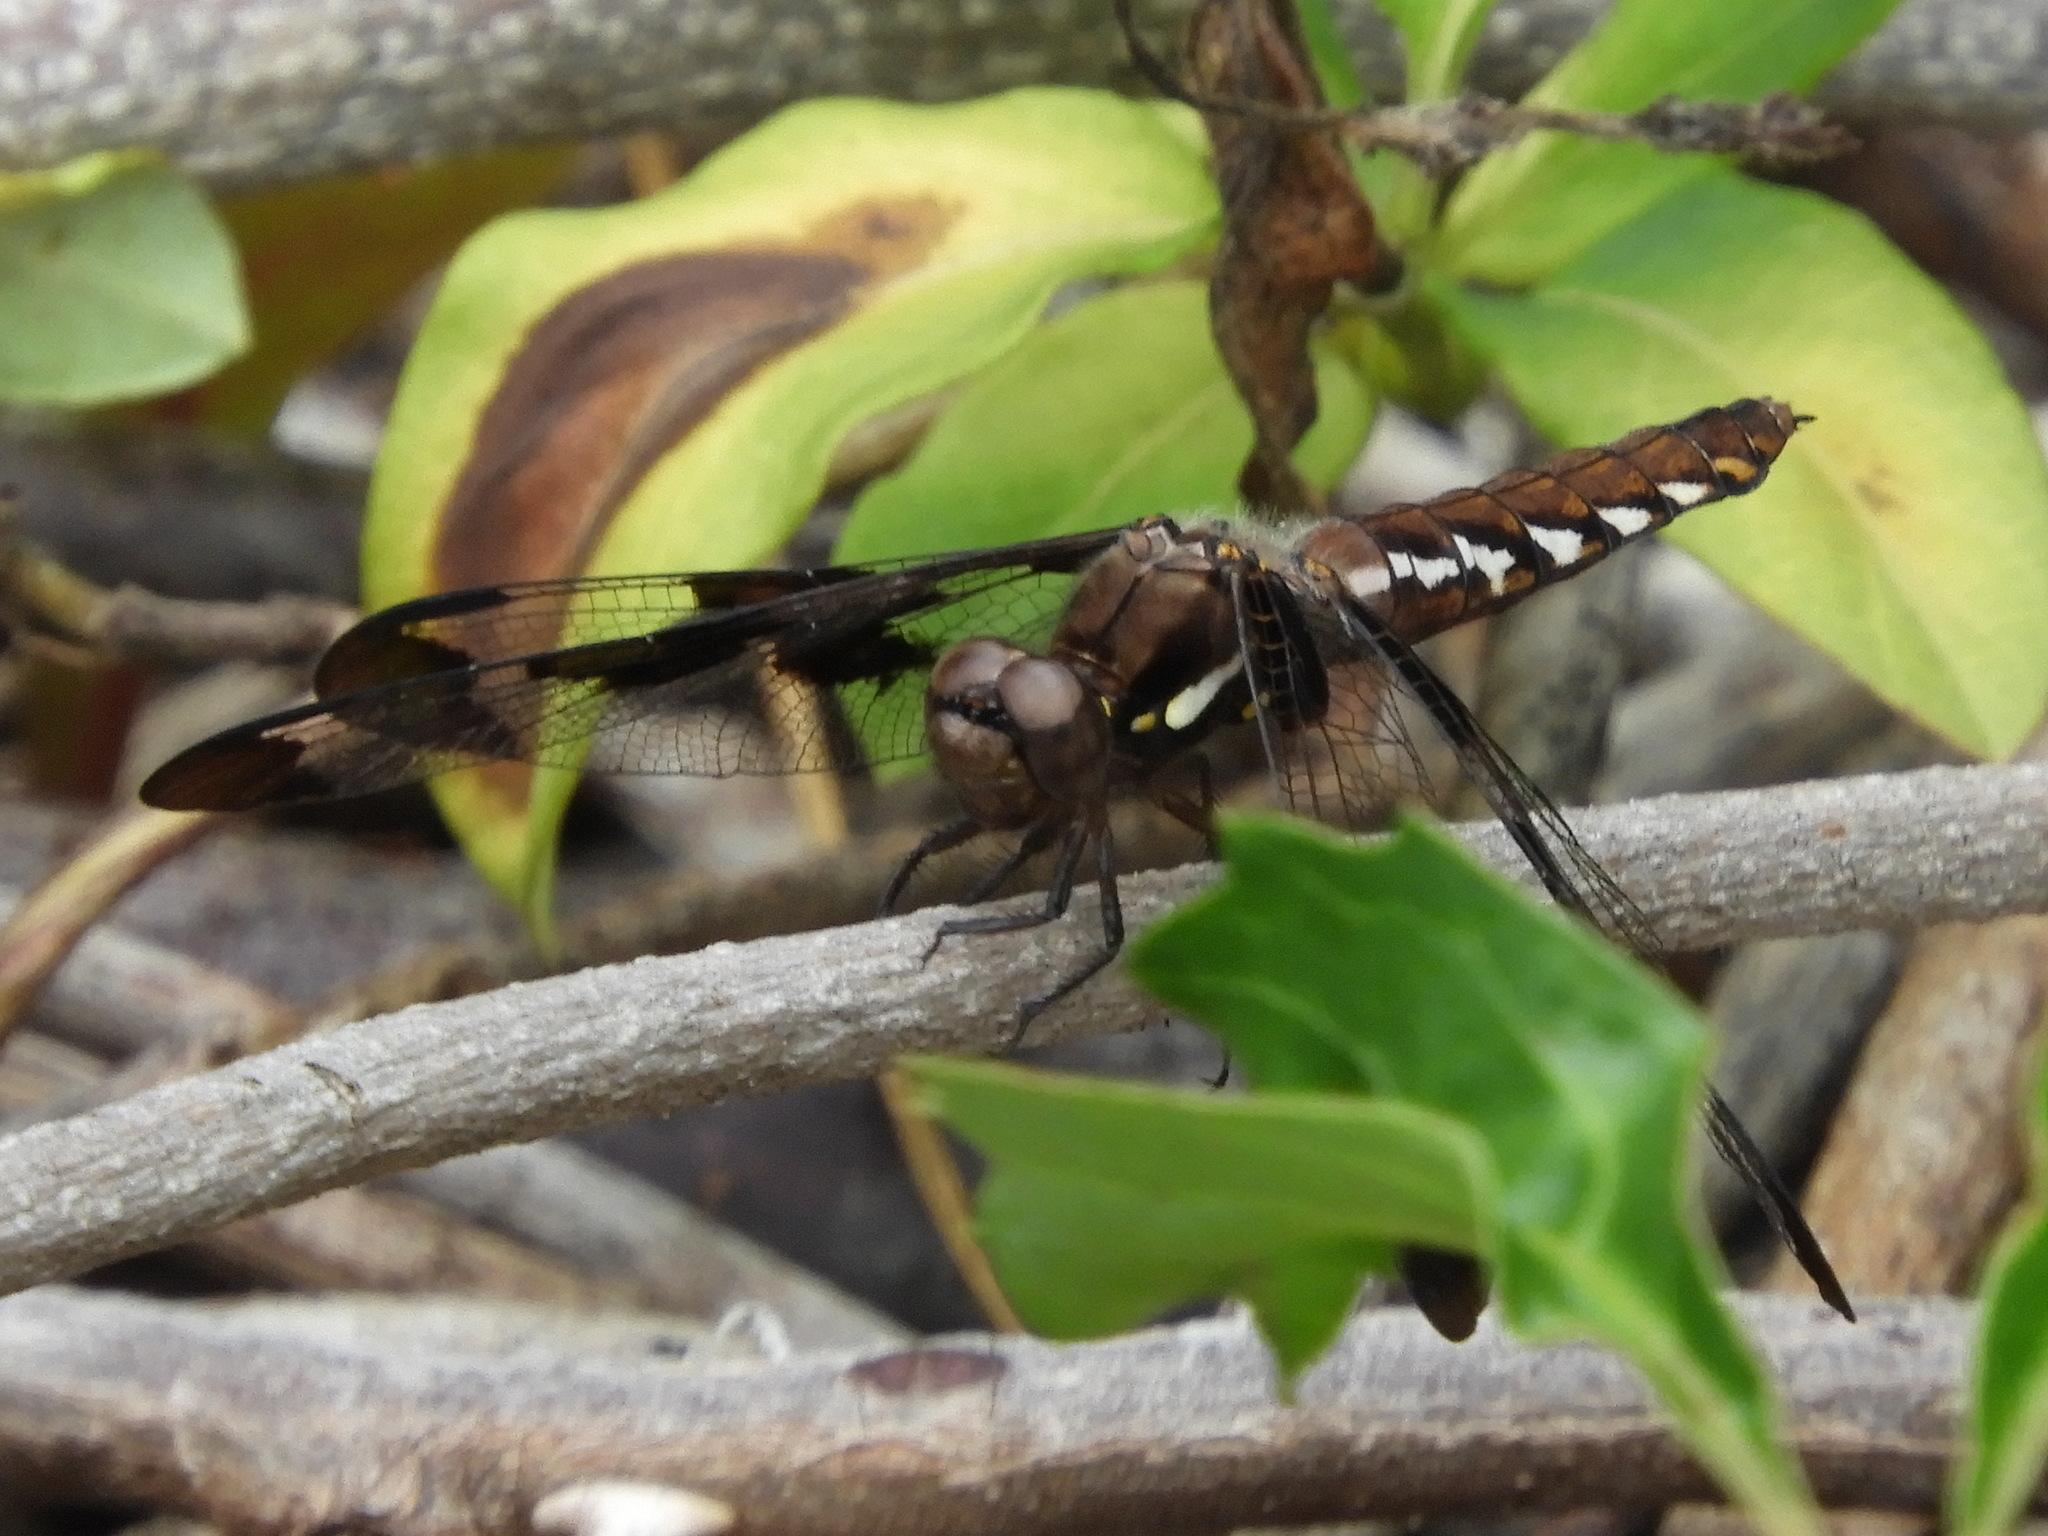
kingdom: Animalia
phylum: Arthropoda
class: Insecta
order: Odonata
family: Libellulidae
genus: Plathemis
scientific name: Plathemis lydia
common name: Common whitetail
